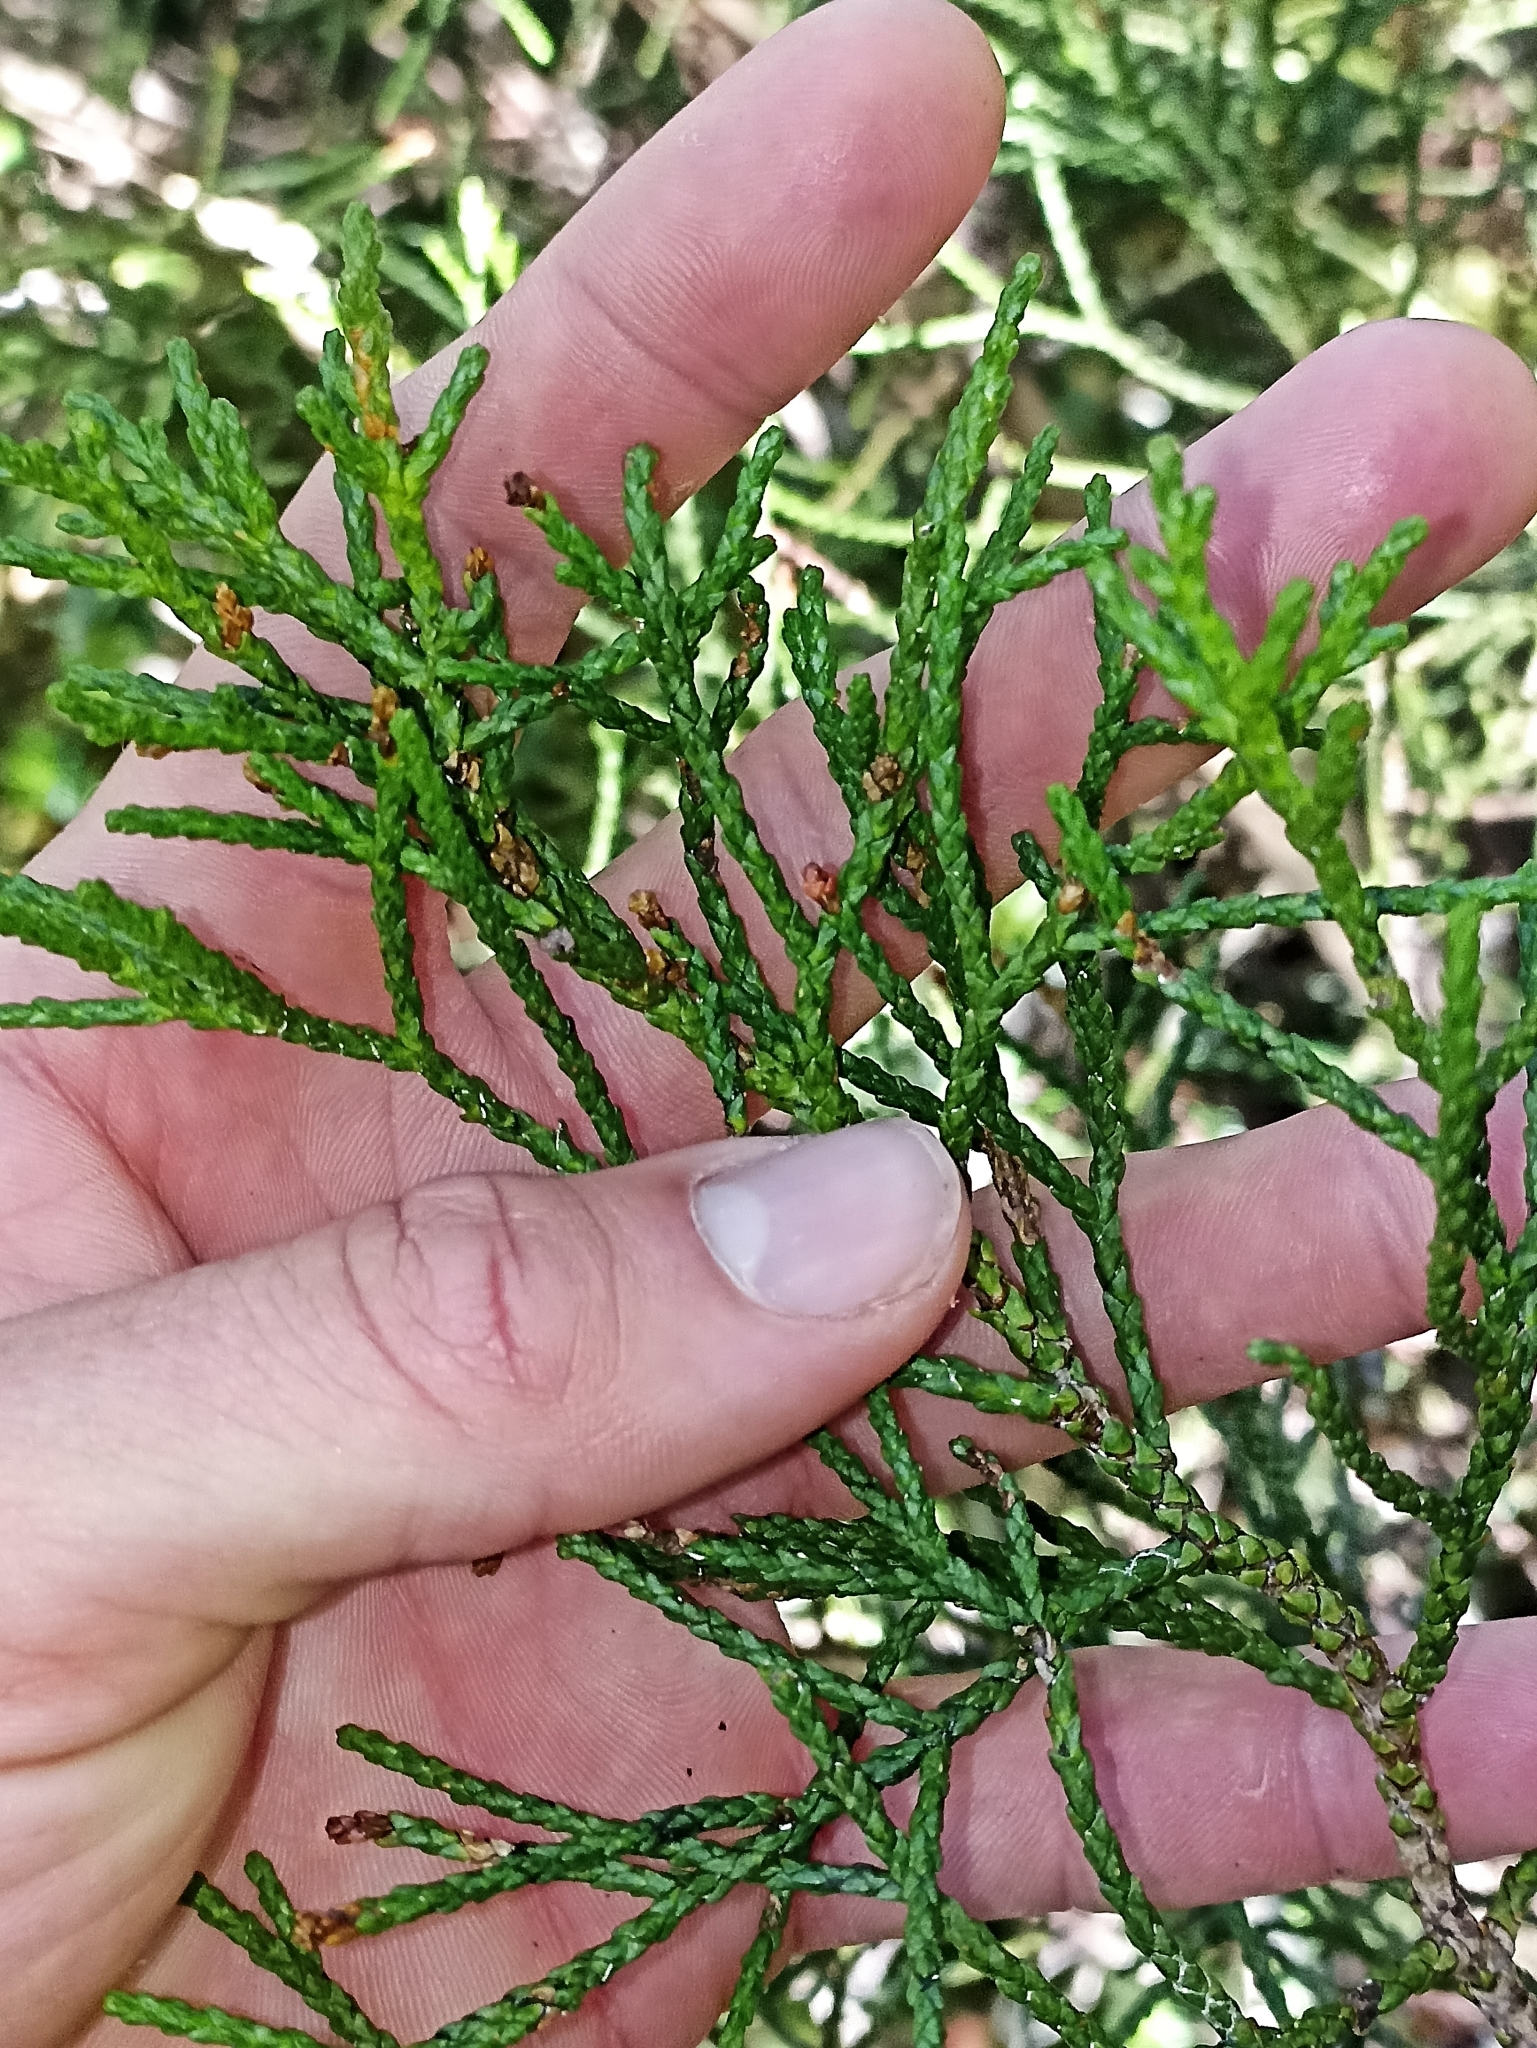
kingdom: Plantae
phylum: Tracheophyta
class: Pinopsida
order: Pinales
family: Podocarpaceae
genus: Manoao
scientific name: Manoao colensoi
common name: Silver pine
